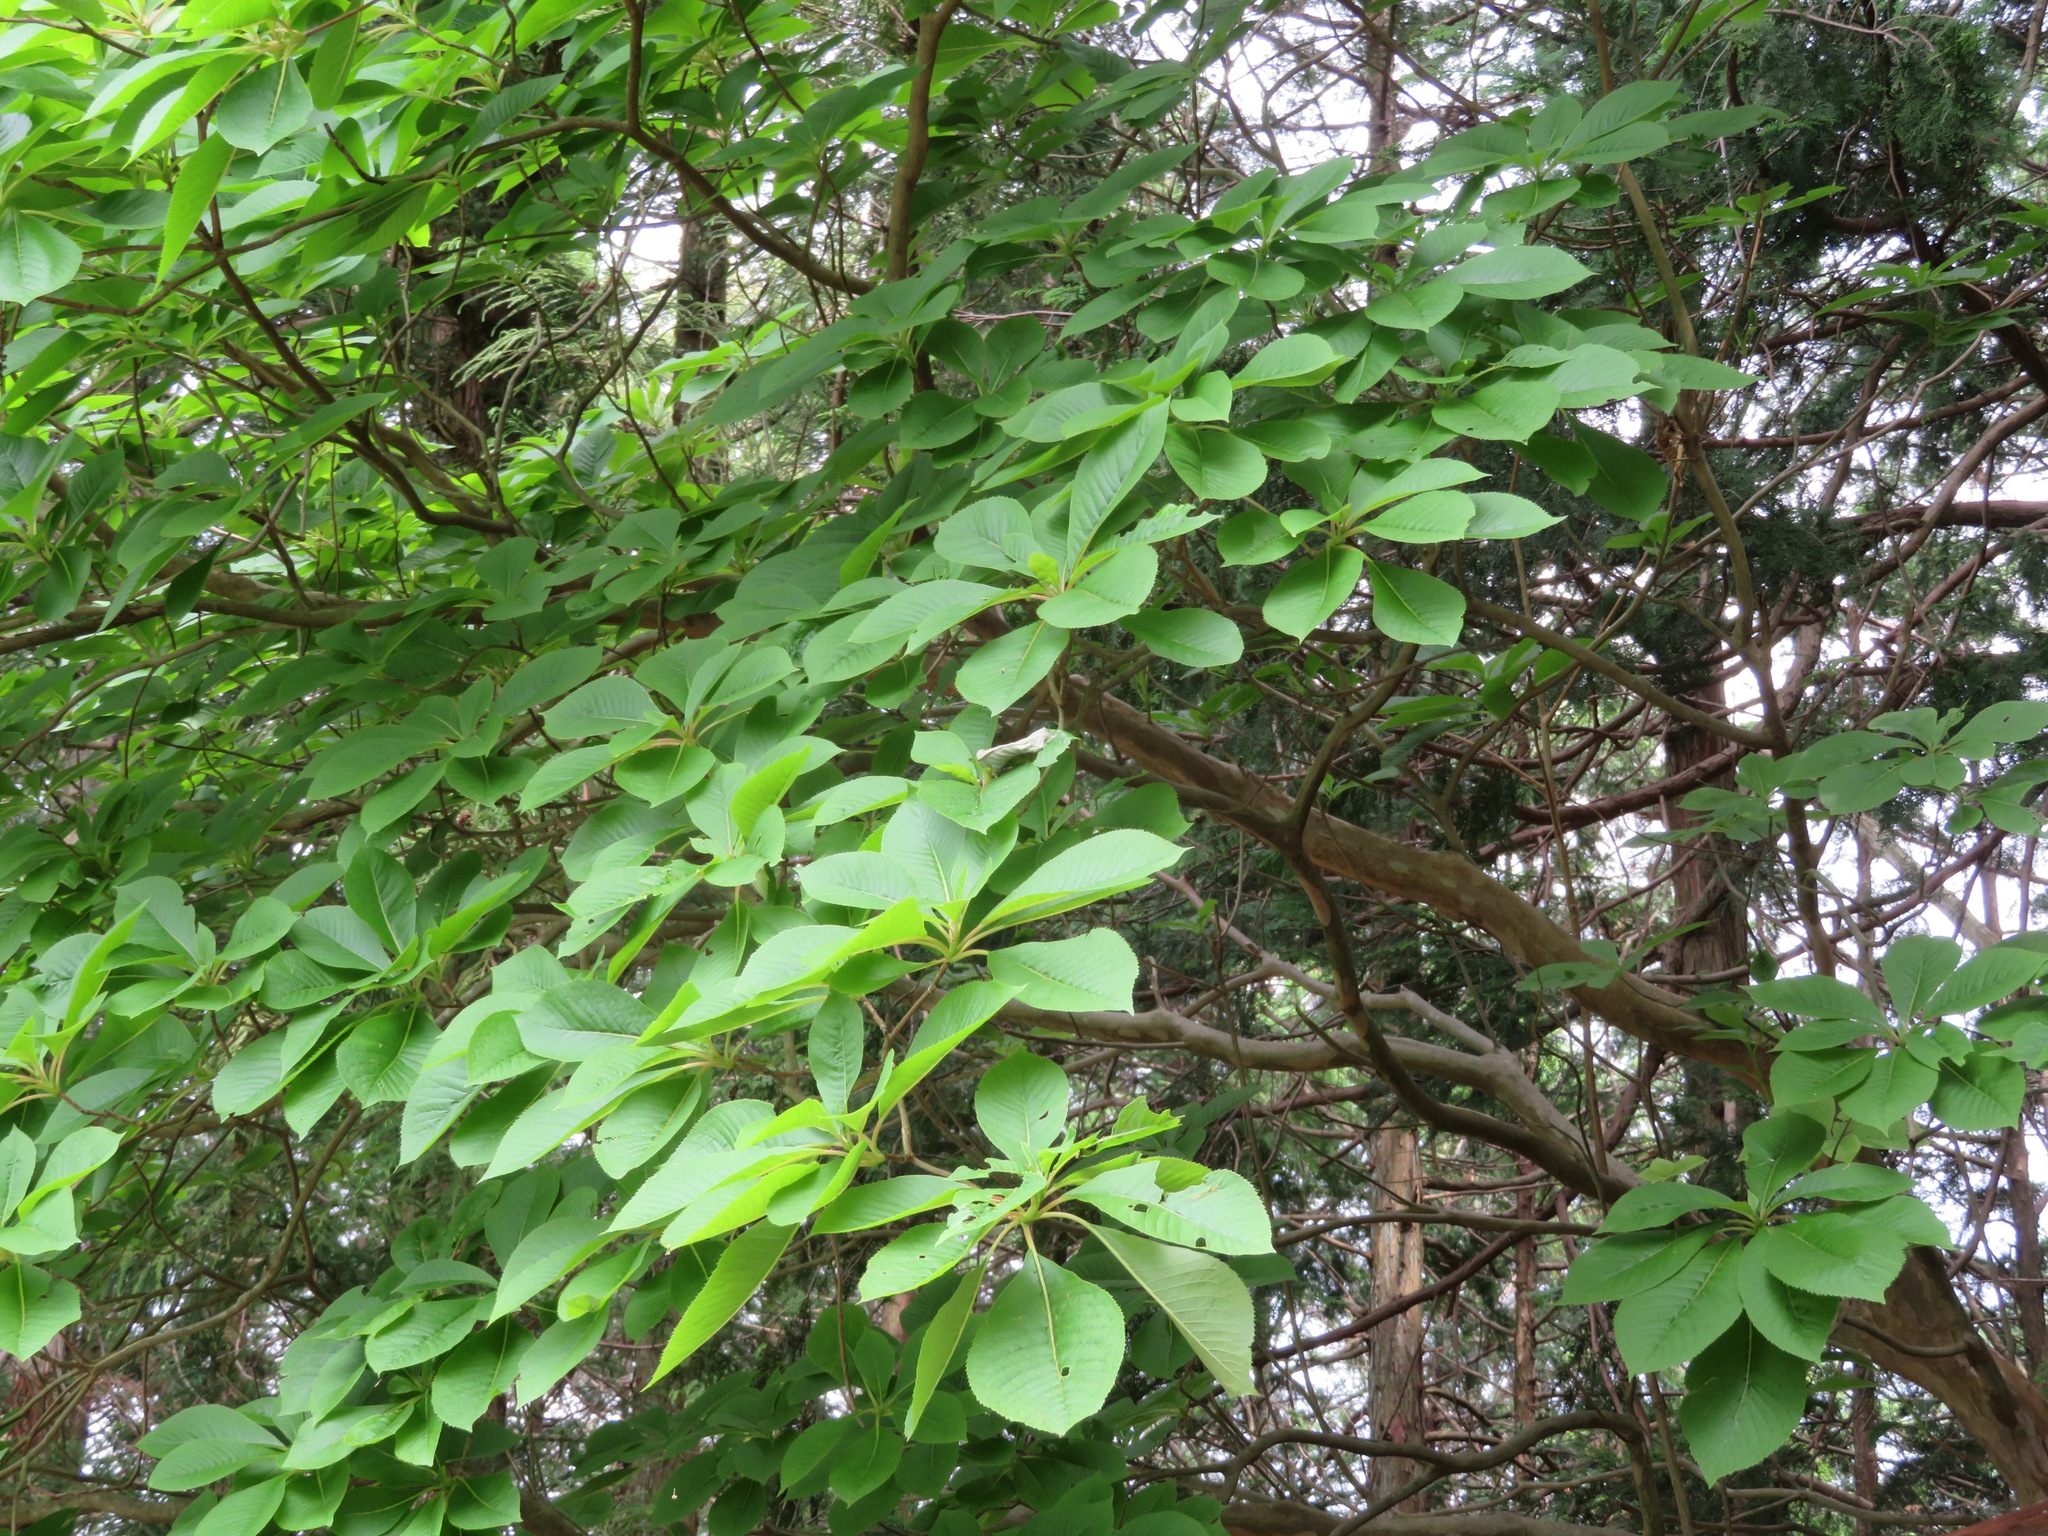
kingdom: Plantae
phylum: Tracheophyta
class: Magnoliopsida
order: Ericales
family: Clethraceae
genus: Clethra
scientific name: Clethra barbinervis
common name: Japanese clethra
